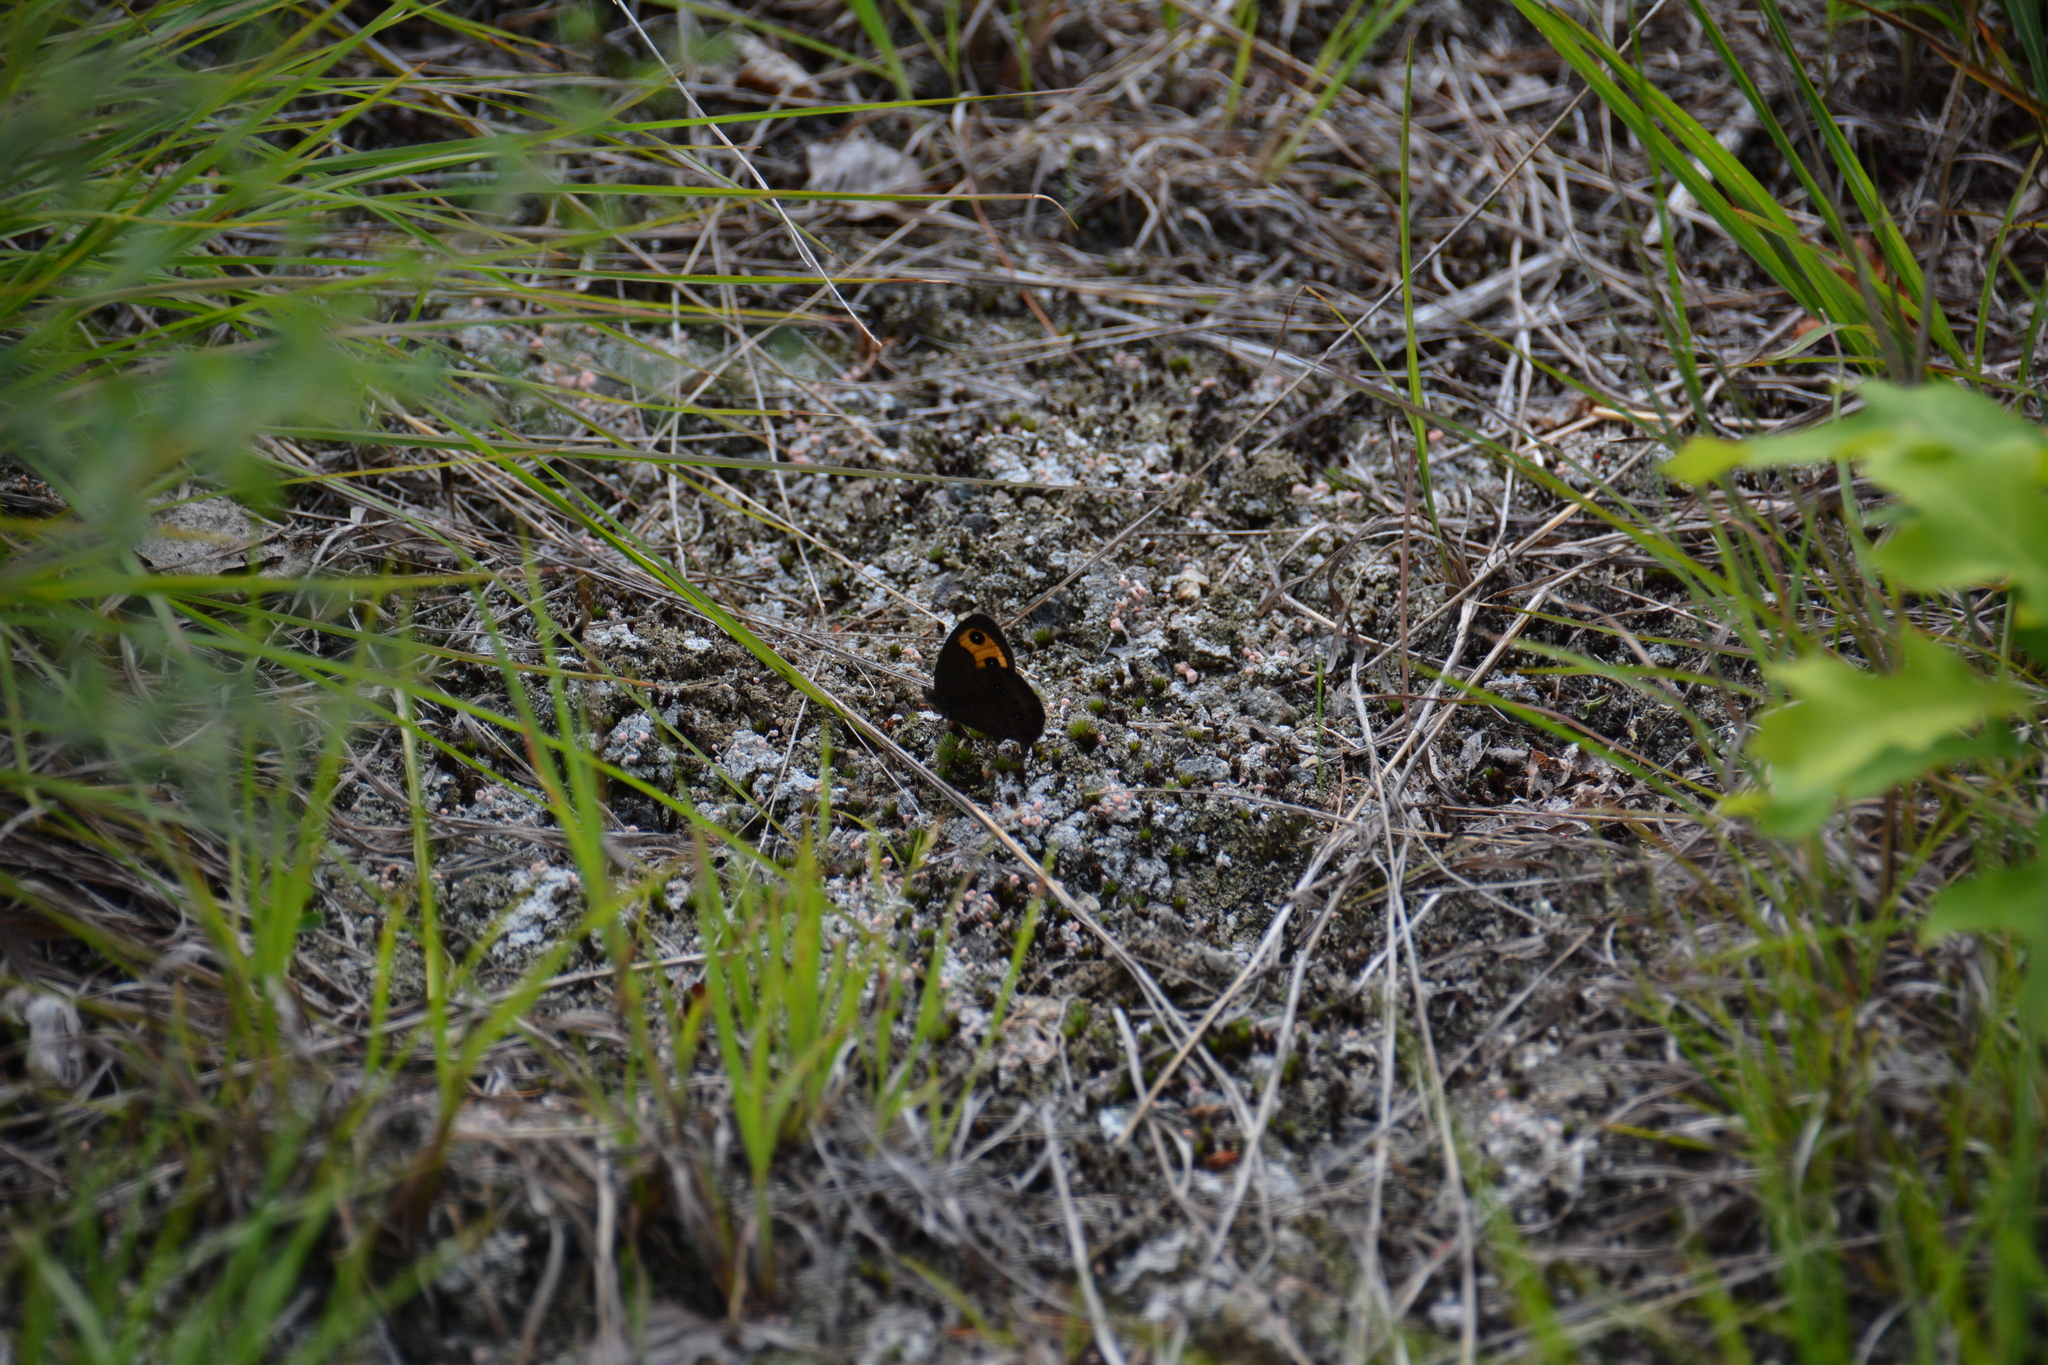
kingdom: Animalia
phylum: Arthropoda
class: Insecta
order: Lepidoptera
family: Nymphalidae
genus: Cercyonis
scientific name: Cercyonis pegala
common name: Common wood-nymph
